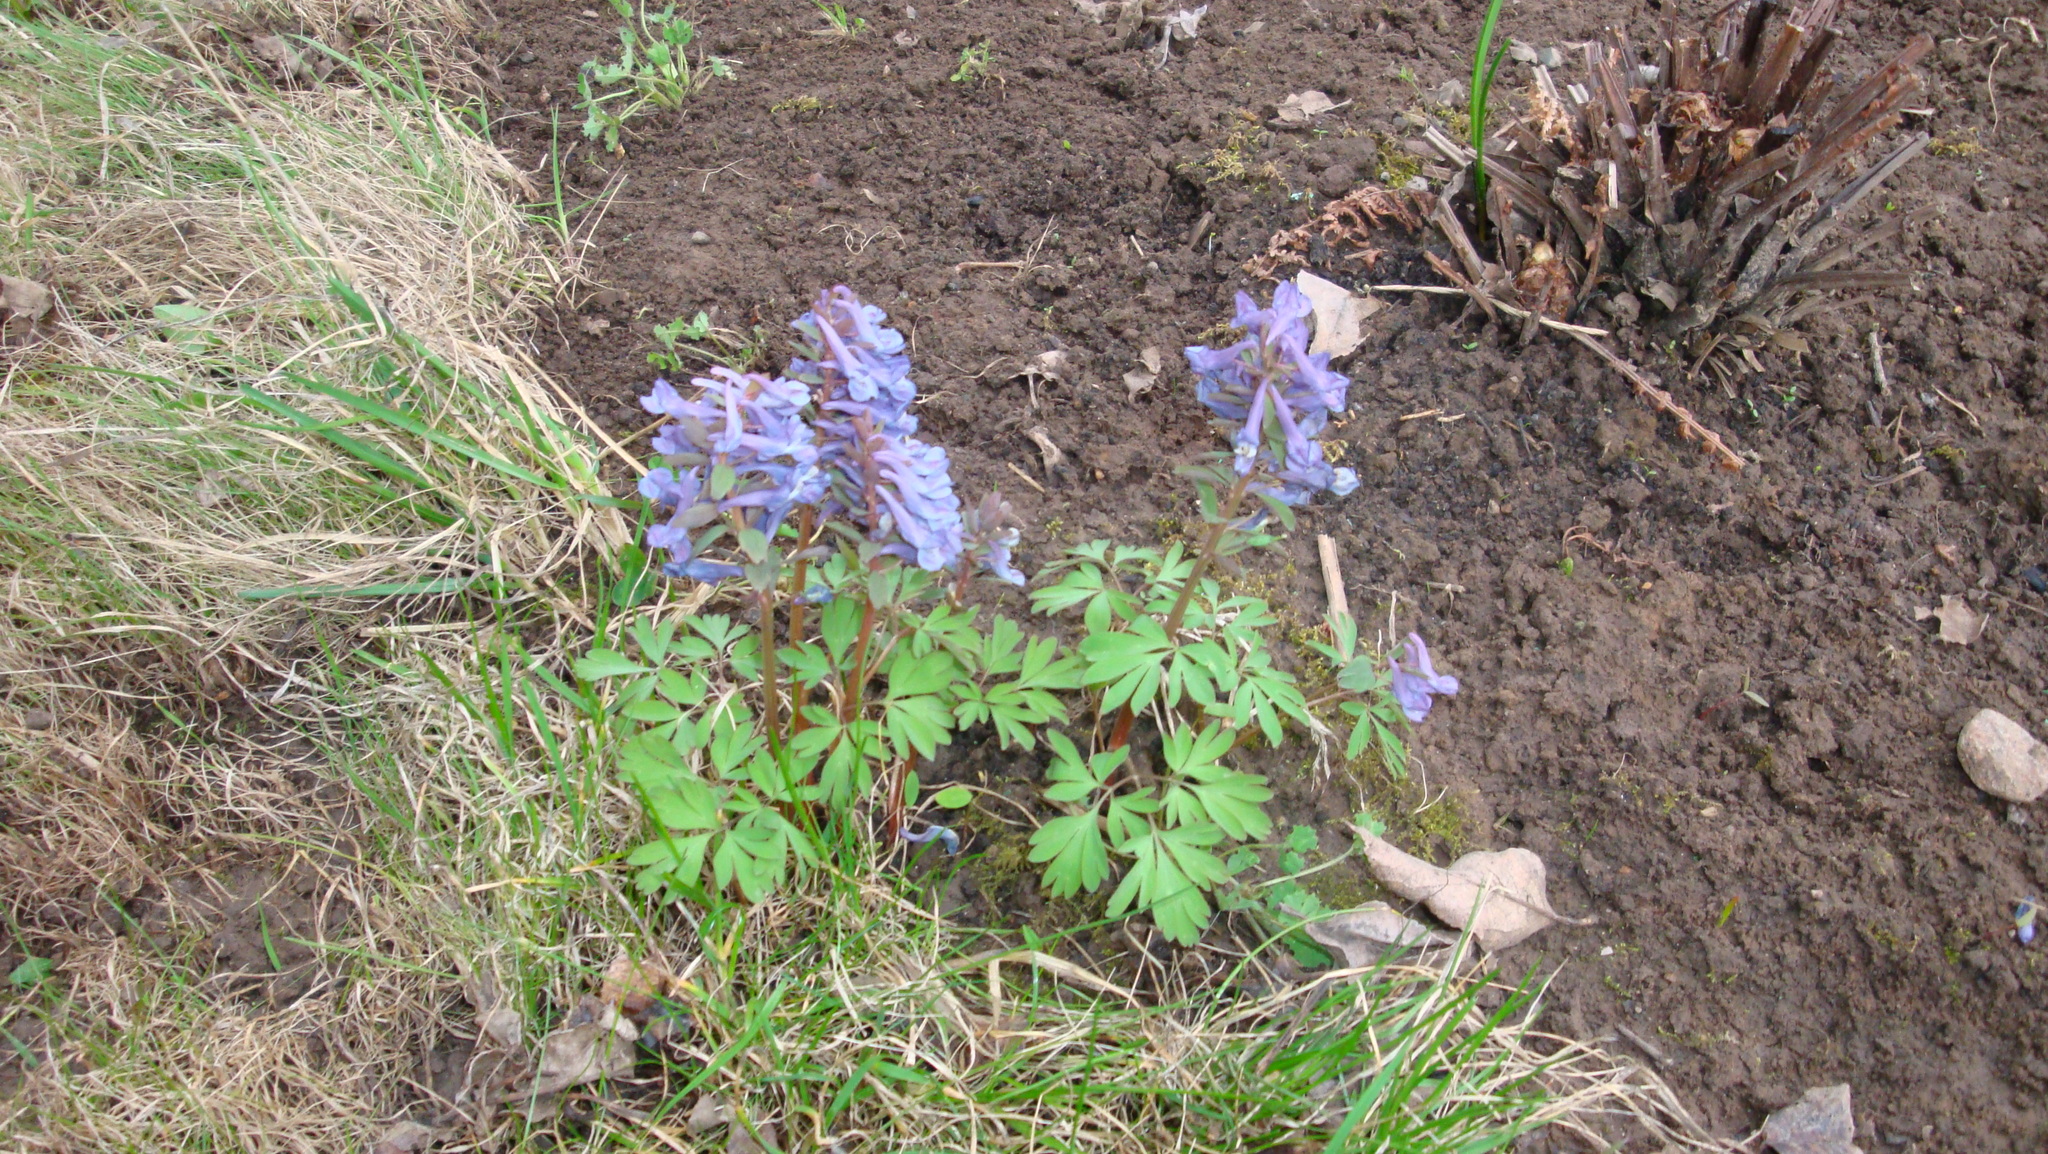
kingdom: Plantae
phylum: Tracheophyta
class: Magnoliopsida
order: Ranunculales
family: Papaveraceae
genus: Corydalis
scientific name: Corydalis solida
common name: Bird-in-a-bush
